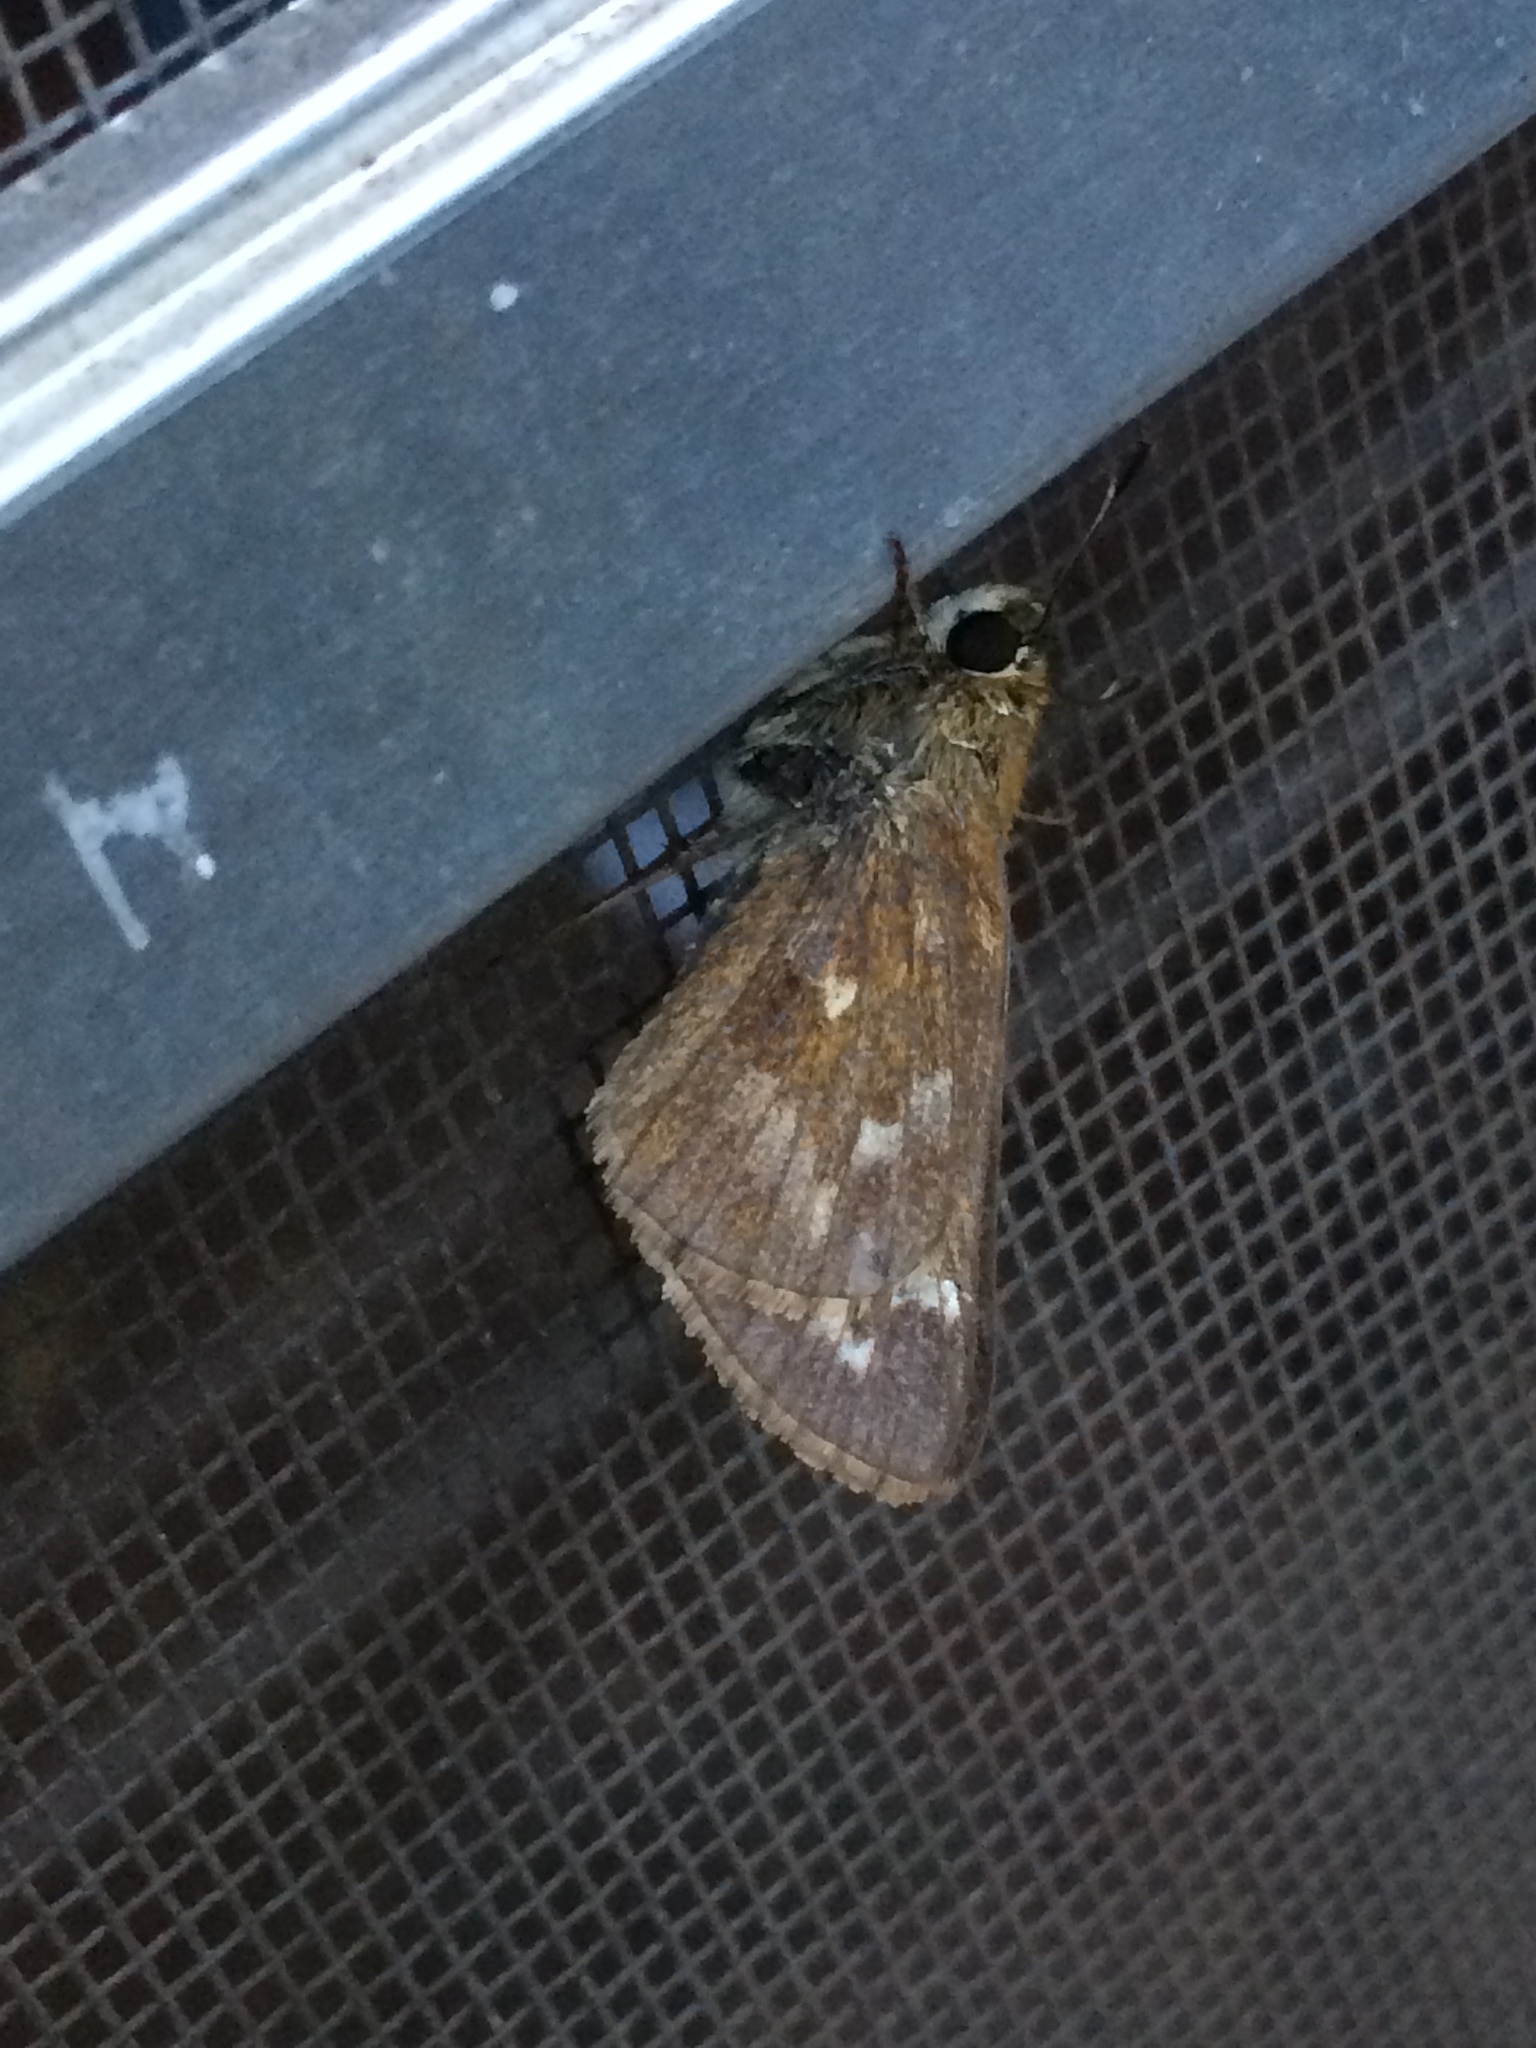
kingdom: Animalia
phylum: Arthropoda
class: Insecta
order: Lepidoptera
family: Hesperiidae
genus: Atalopedes
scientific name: Atalopedes
